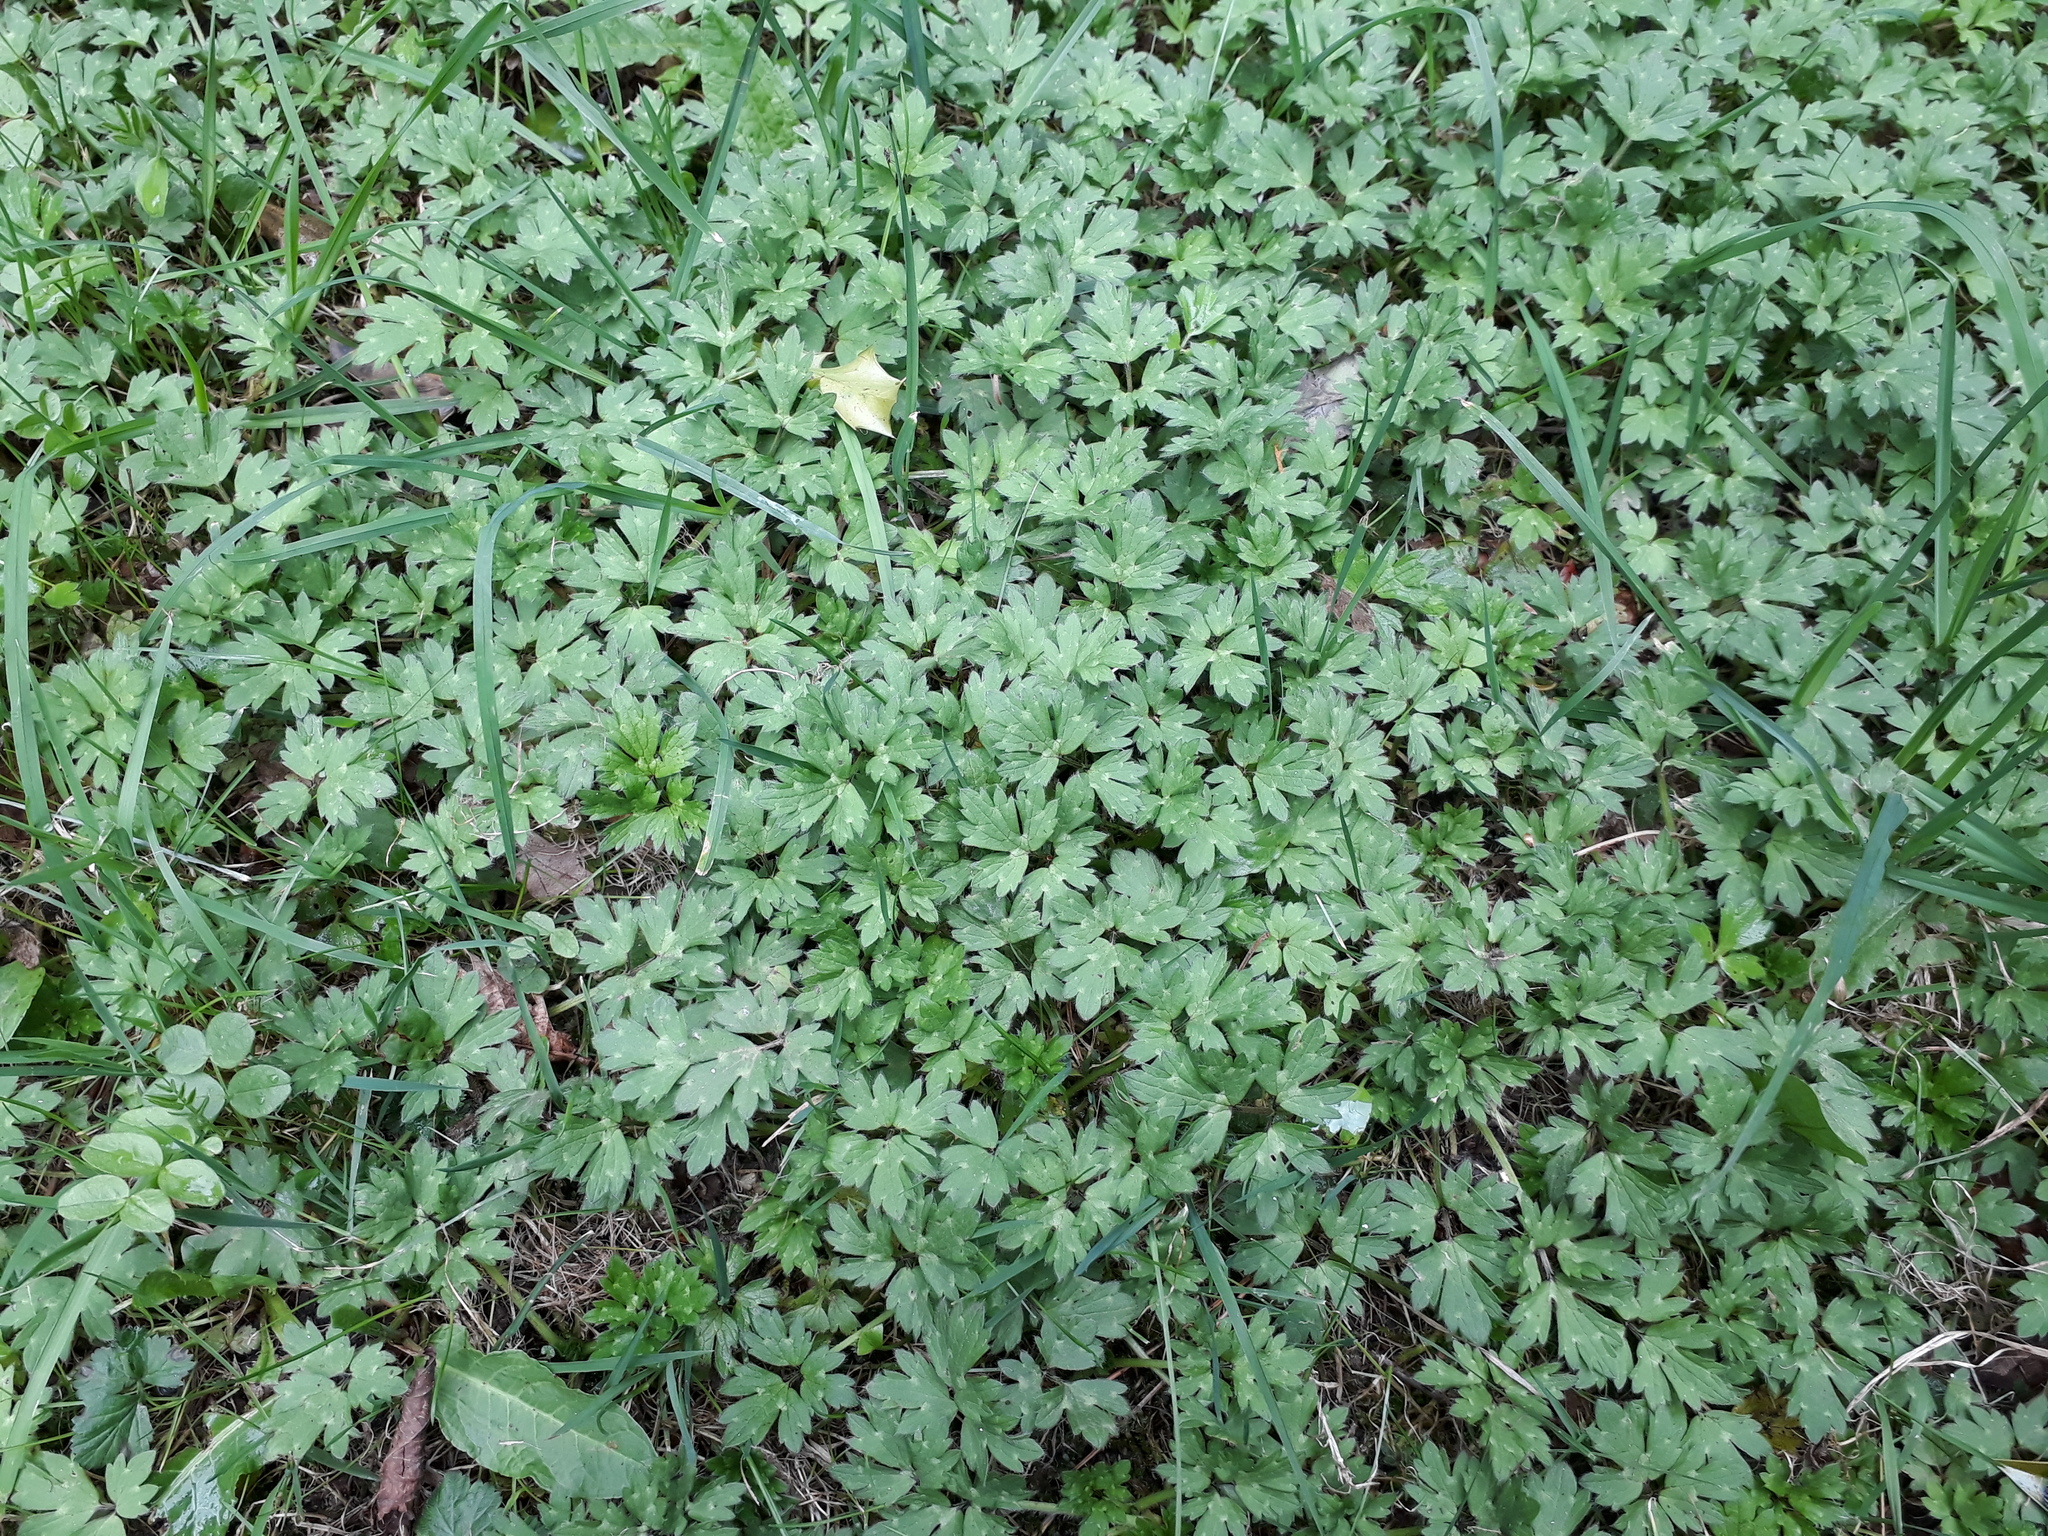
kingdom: Plantae
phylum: Tracheophyta
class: Magnoliopsida
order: Ranunculales
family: Ranunculaceae
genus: Ranunculus
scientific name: Ranunculus repens
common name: Creeping buttercup
